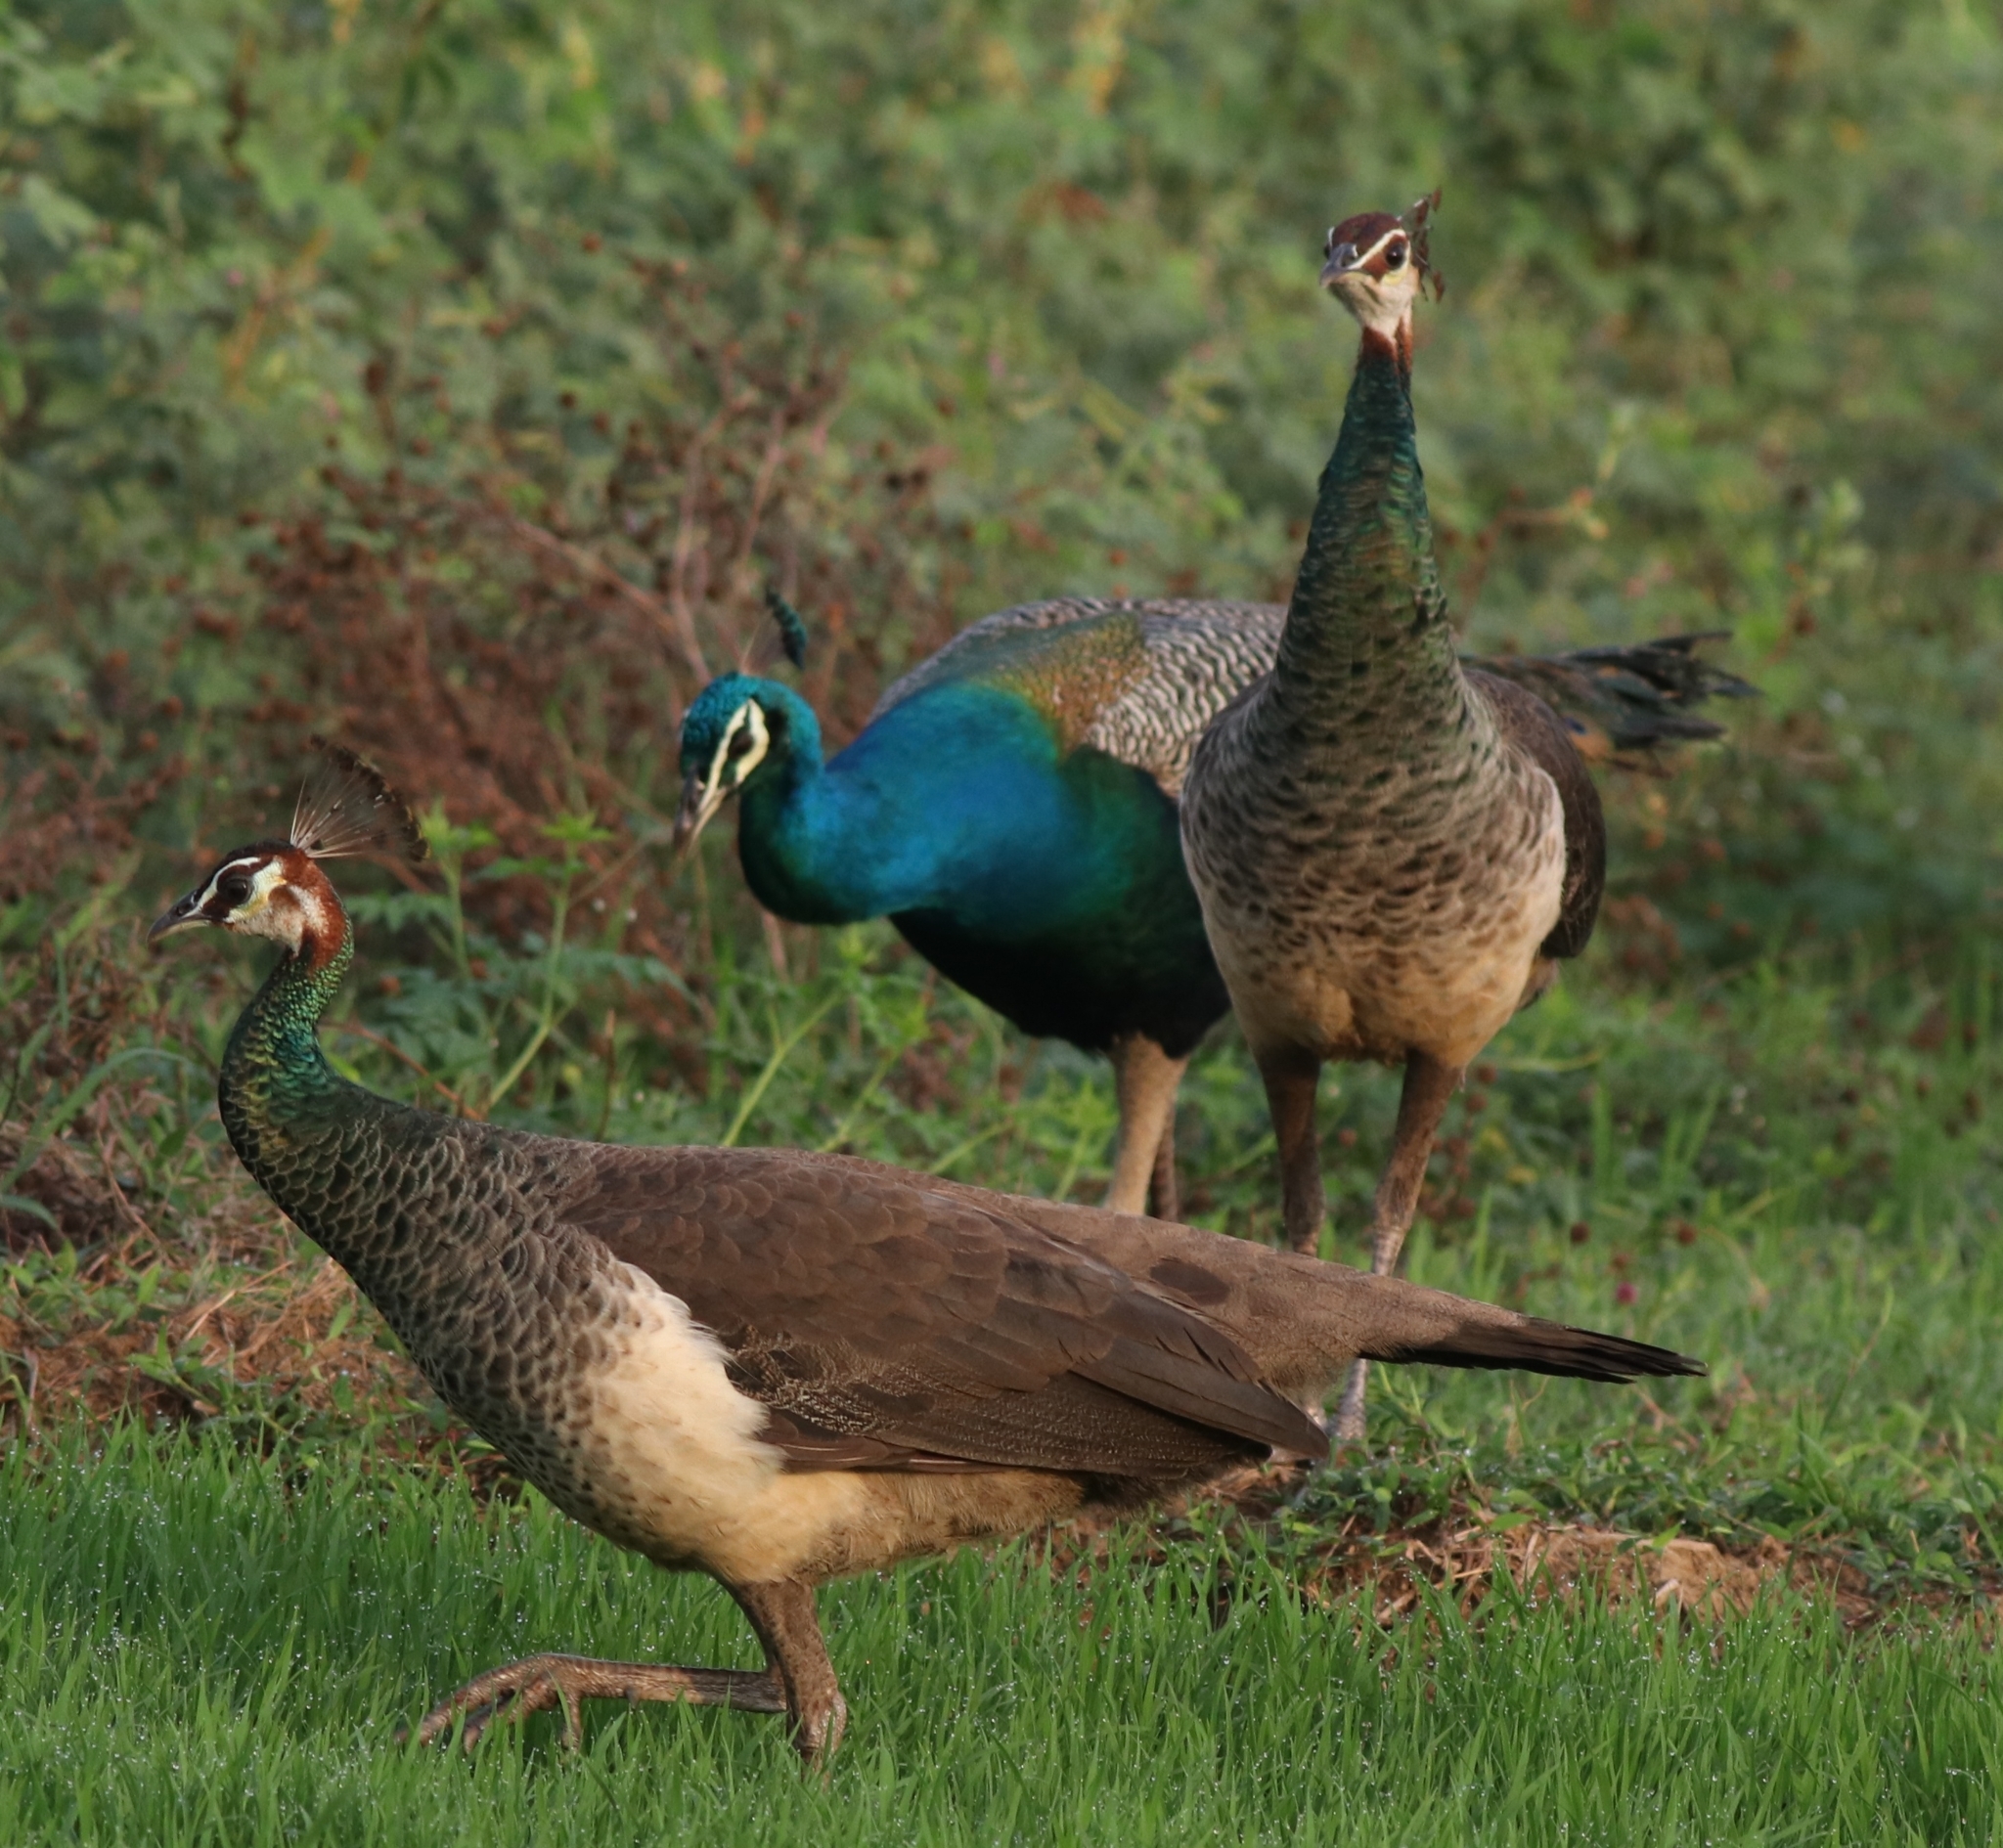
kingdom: Animalia
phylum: Chordata
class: Aves
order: Galliformes
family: Phasianidae
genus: Pavo
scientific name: Pavo cristatus
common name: Indian peafowl
